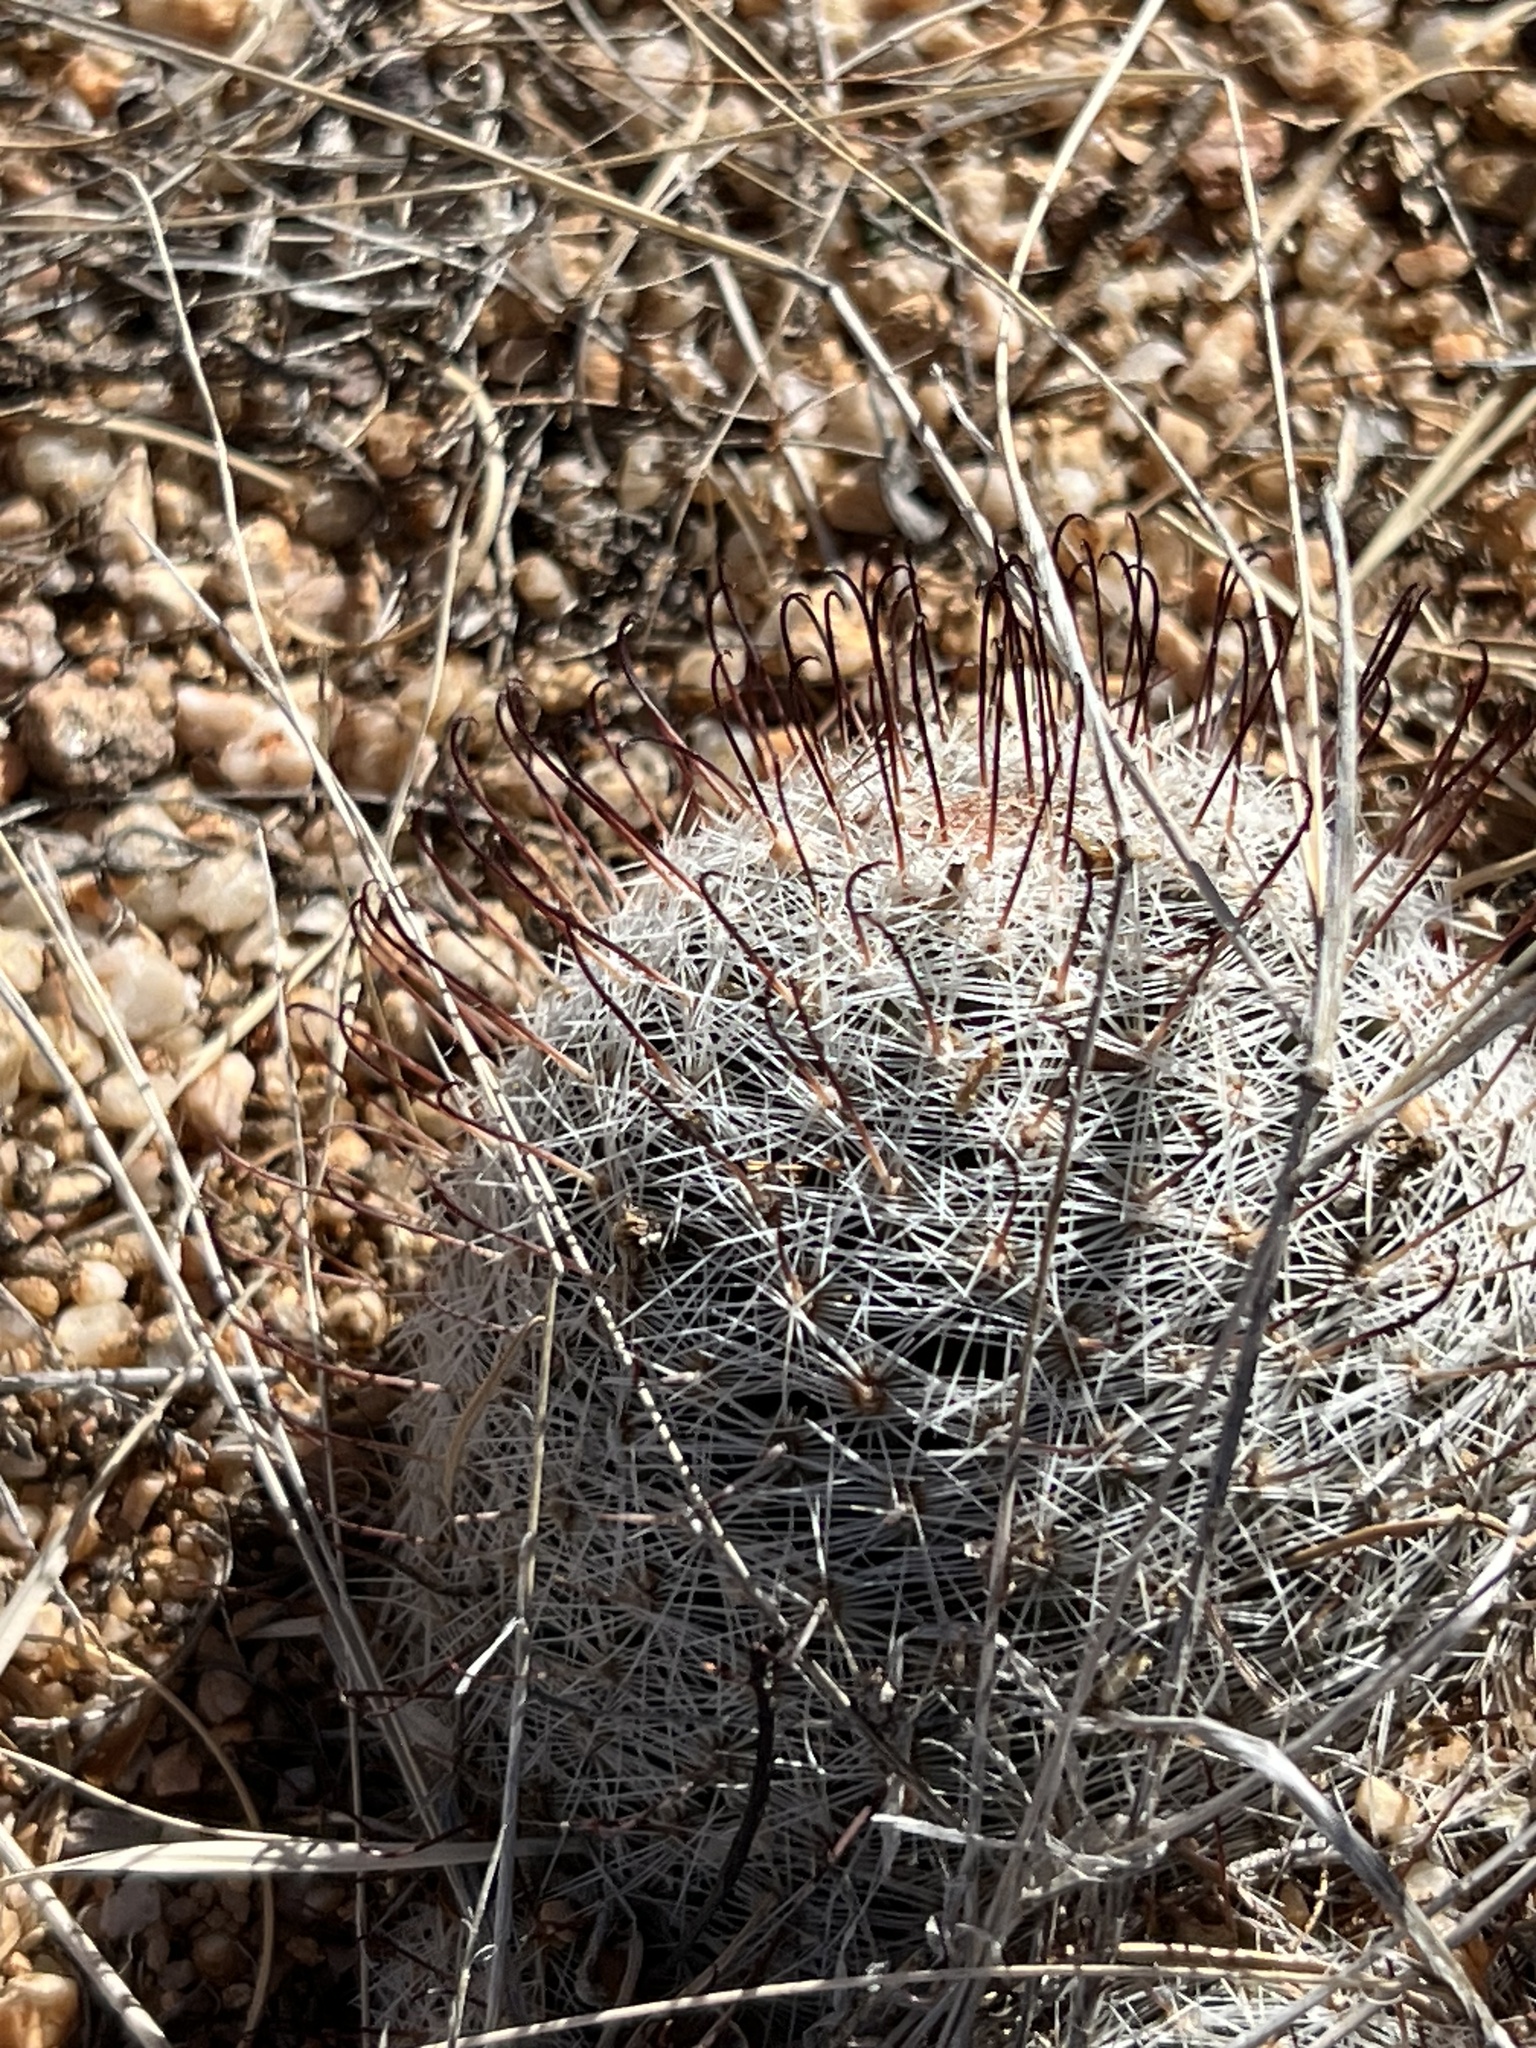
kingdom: Plantae
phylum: Tracheophyta
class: Magnoliopsida
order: Caryophyllales
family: Cactaceae
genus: Cochemiea
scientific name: Cochemiea grahamii
